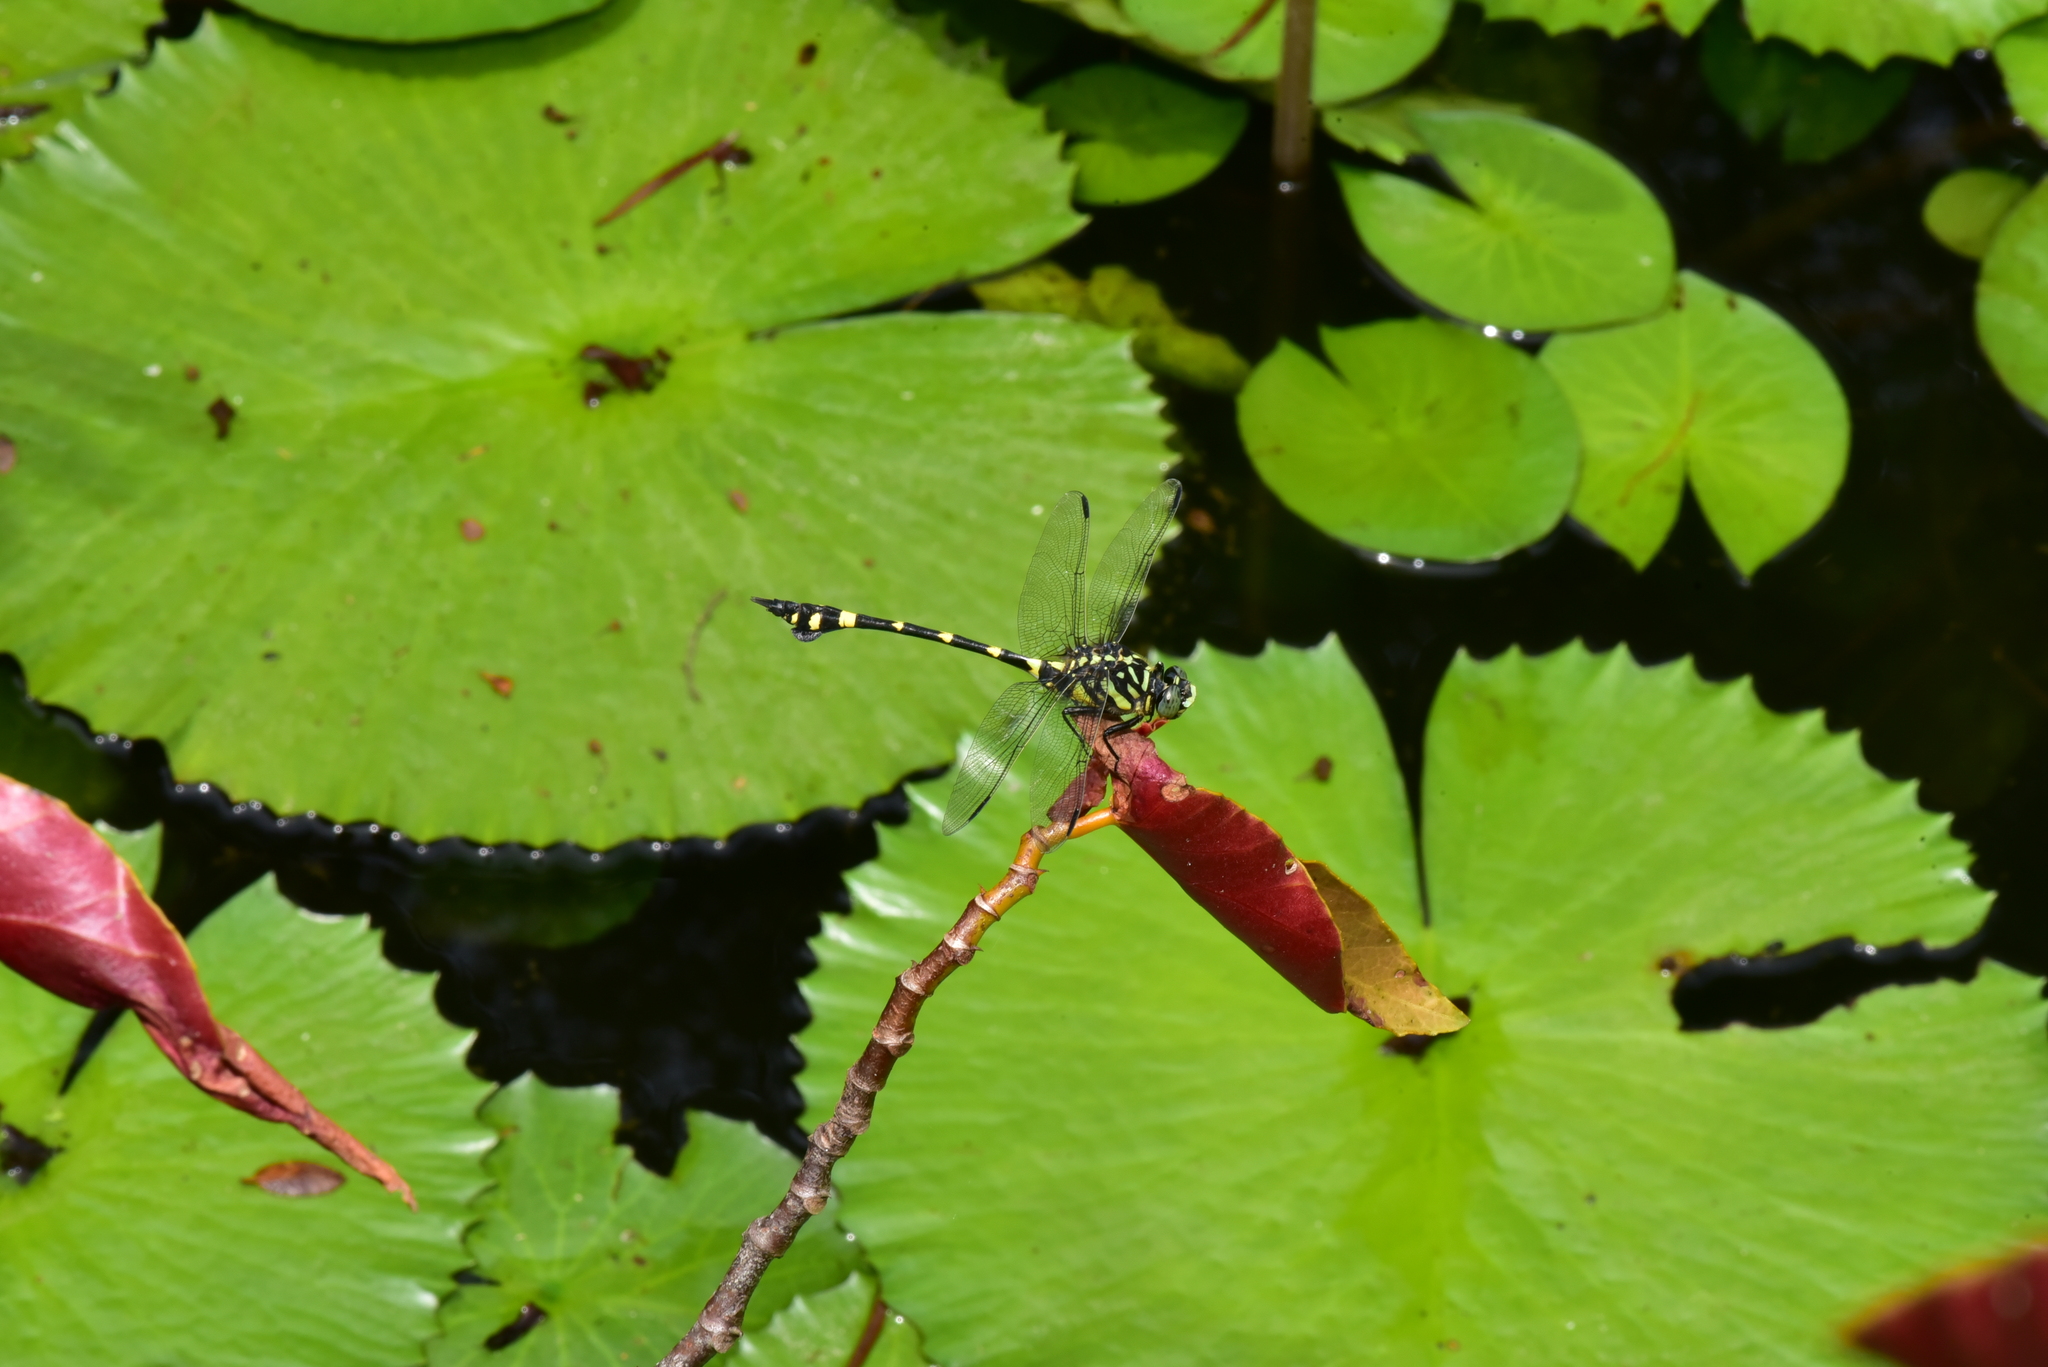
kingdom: Animalia
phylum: Arthropoda
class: Insecta
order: Odonata
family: Gomphidae
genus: Ictinogomphus
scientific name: Ictinogomphus rapax
